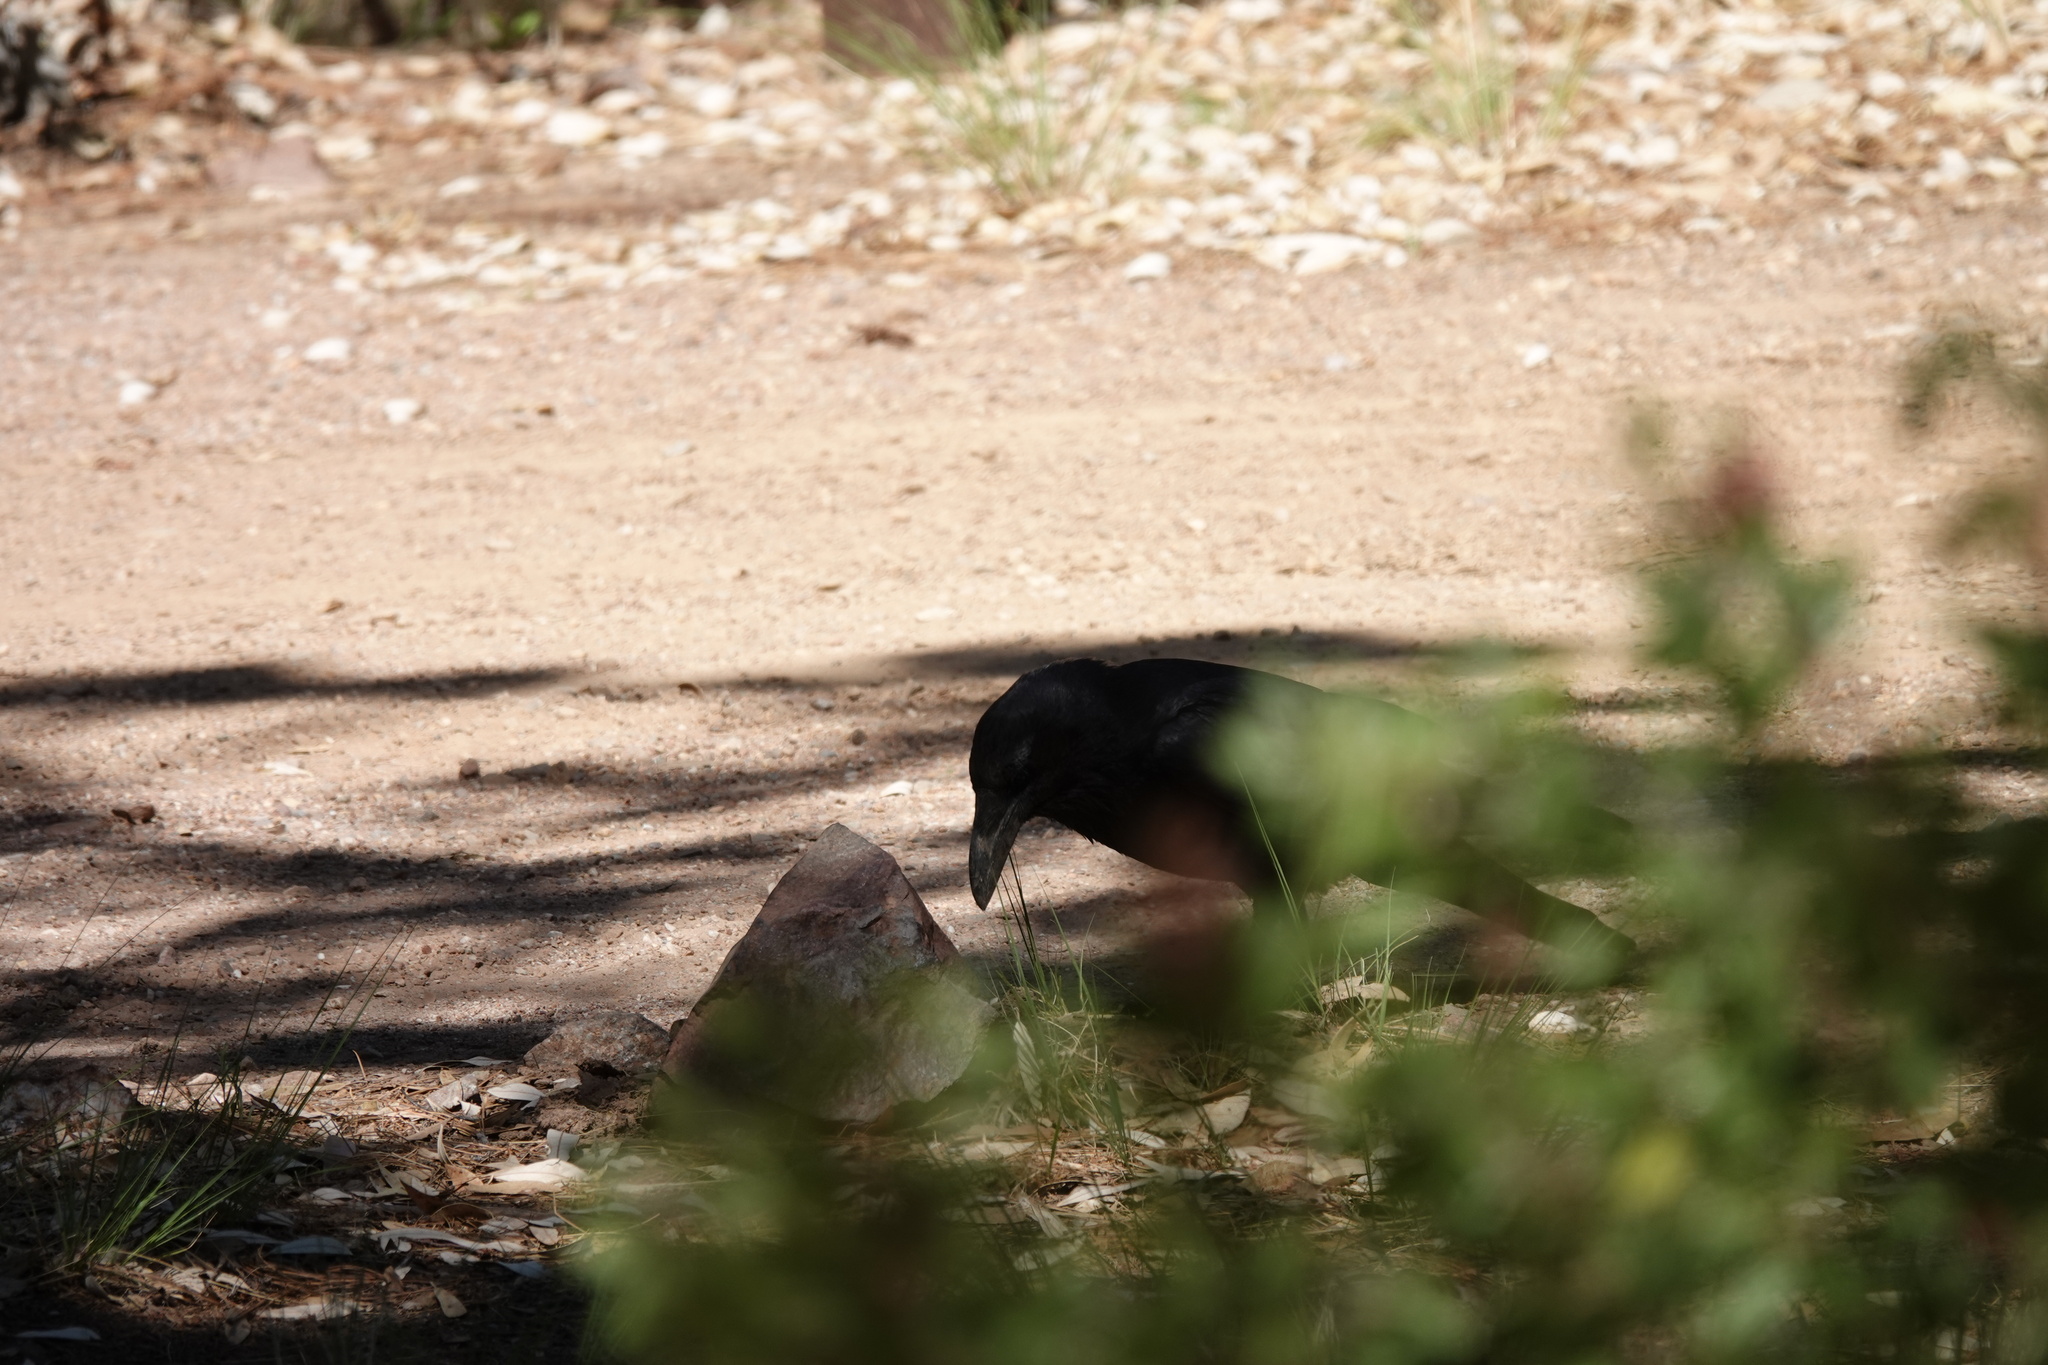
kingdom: Animalia
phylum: Chordata
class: Aves
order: Passeriformes
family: Corvidae
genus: Corvus
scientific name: Corvus corax
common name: Common raven
